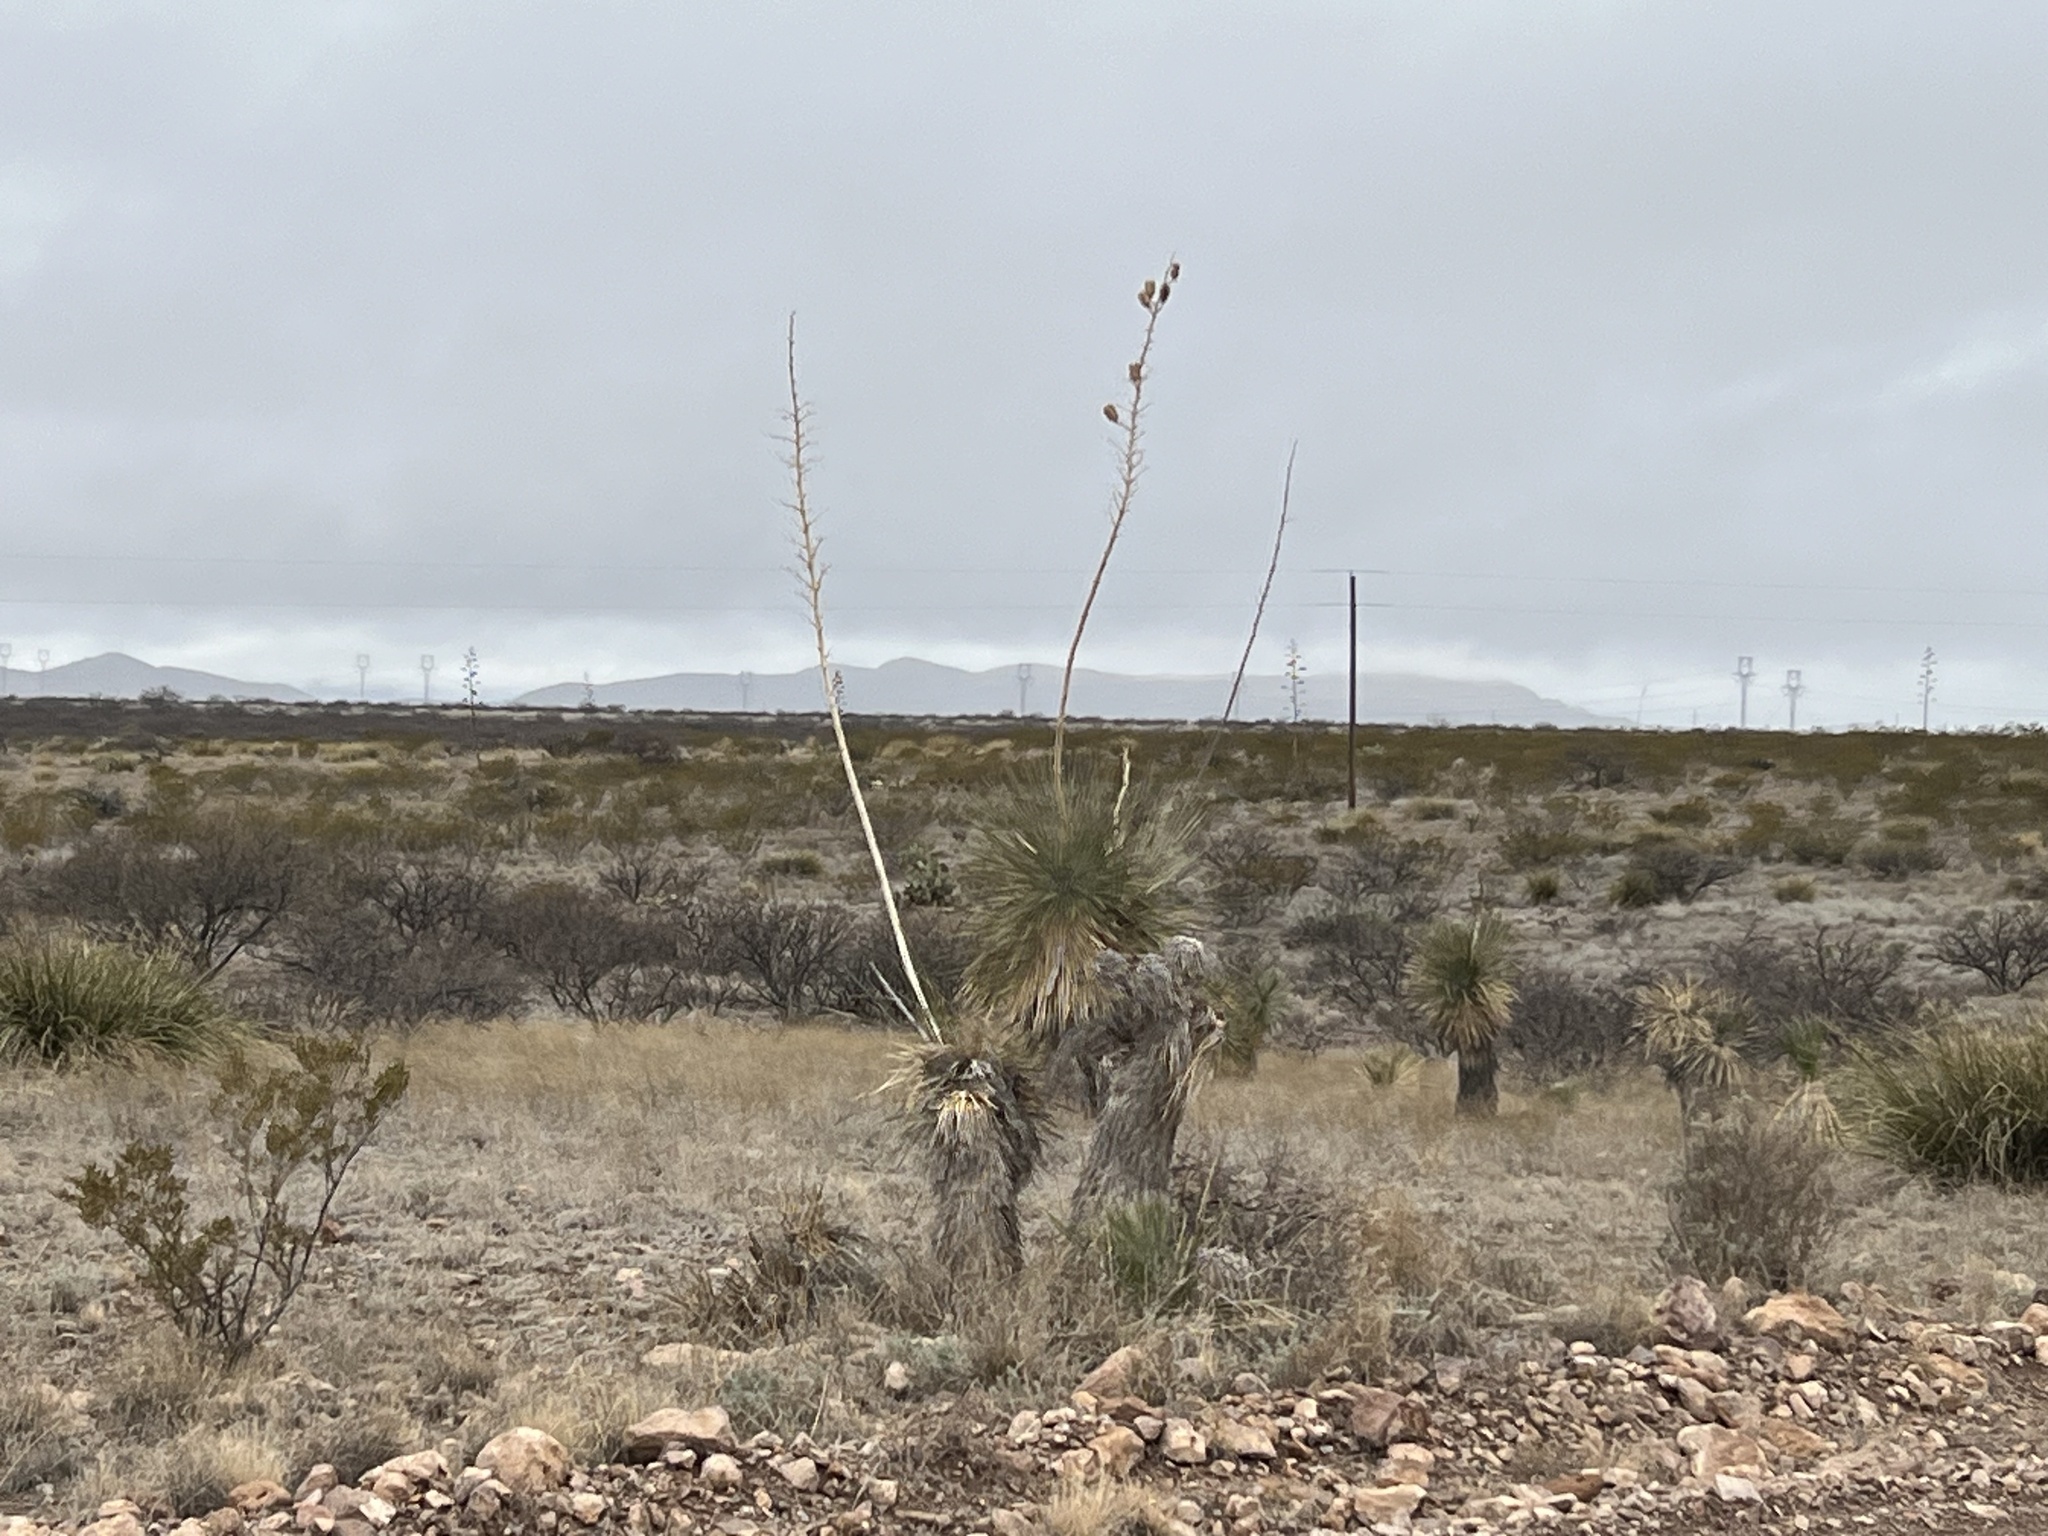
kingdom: Plantae
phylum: Tracheophyta
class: Liliopsida
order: Asparagales
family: Asparagaceae
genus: Yucca
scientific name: Yucca elata
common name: Palmella
